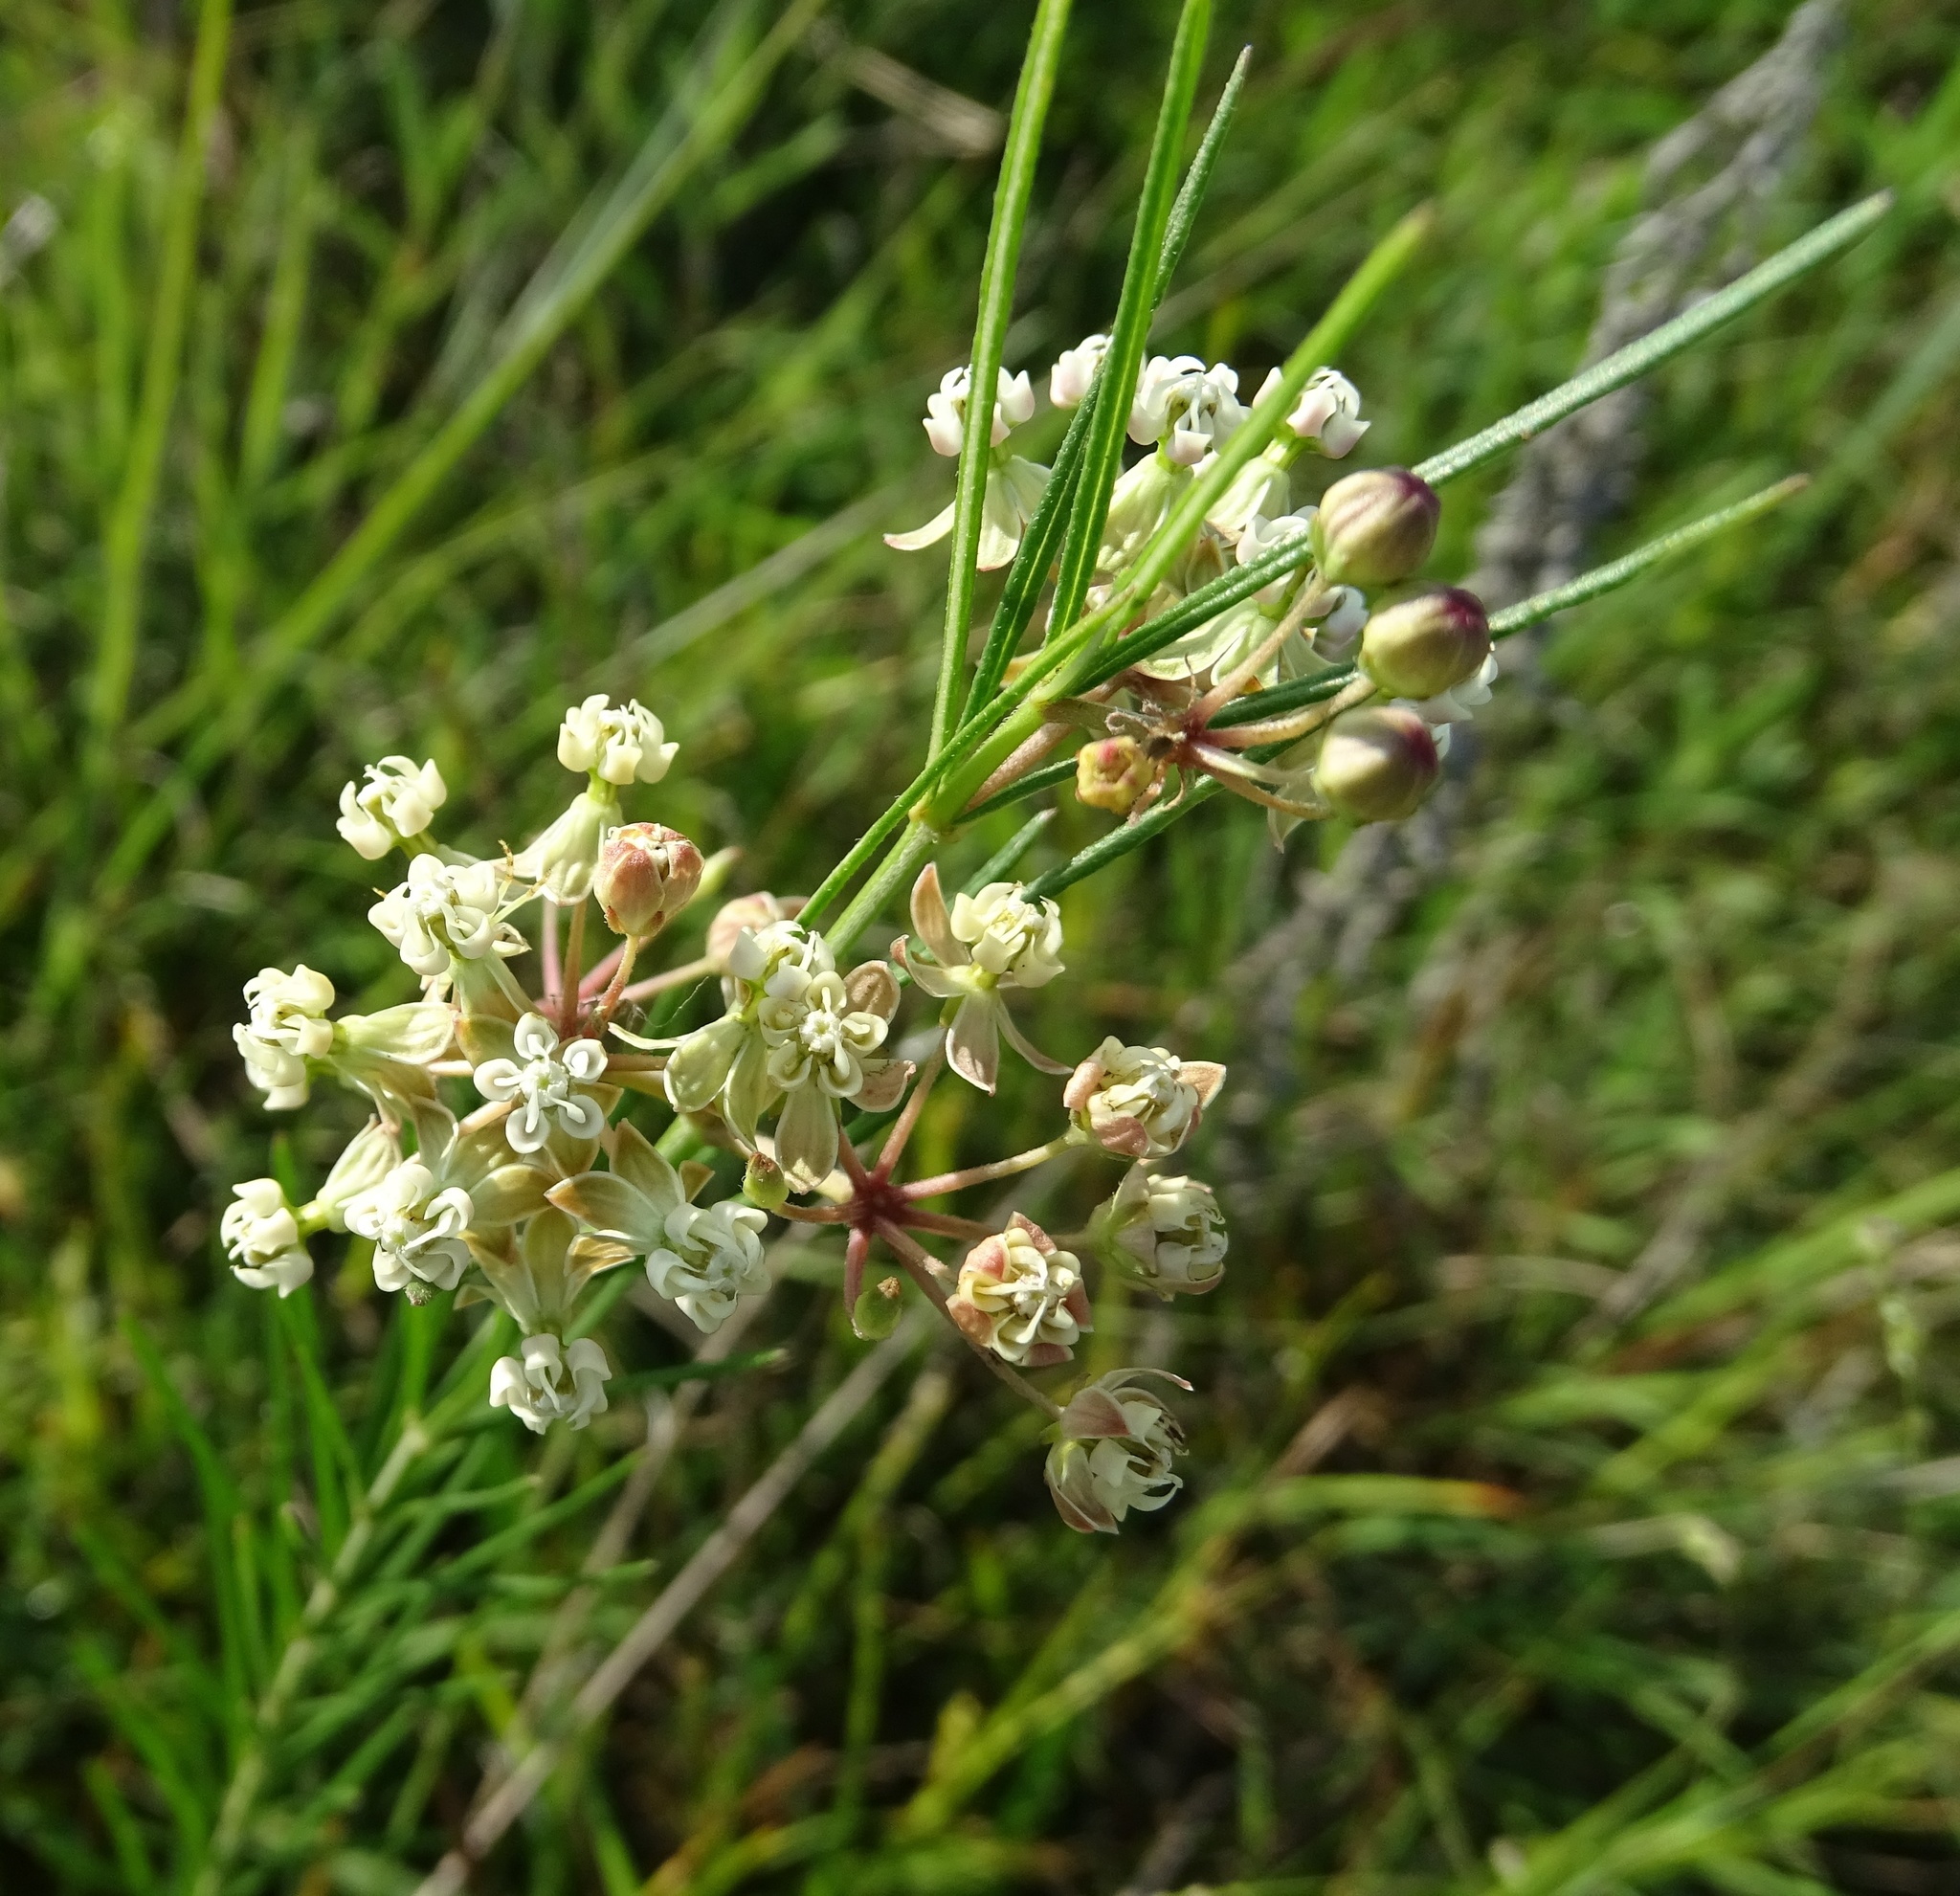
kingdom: Plantae
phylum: Tracheophyta
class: Magnoliopsida
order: Gentianales
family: Apocynaceae
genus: Asclepias
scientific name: Asclepias verticillata
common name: Eastern whorled milkweed
